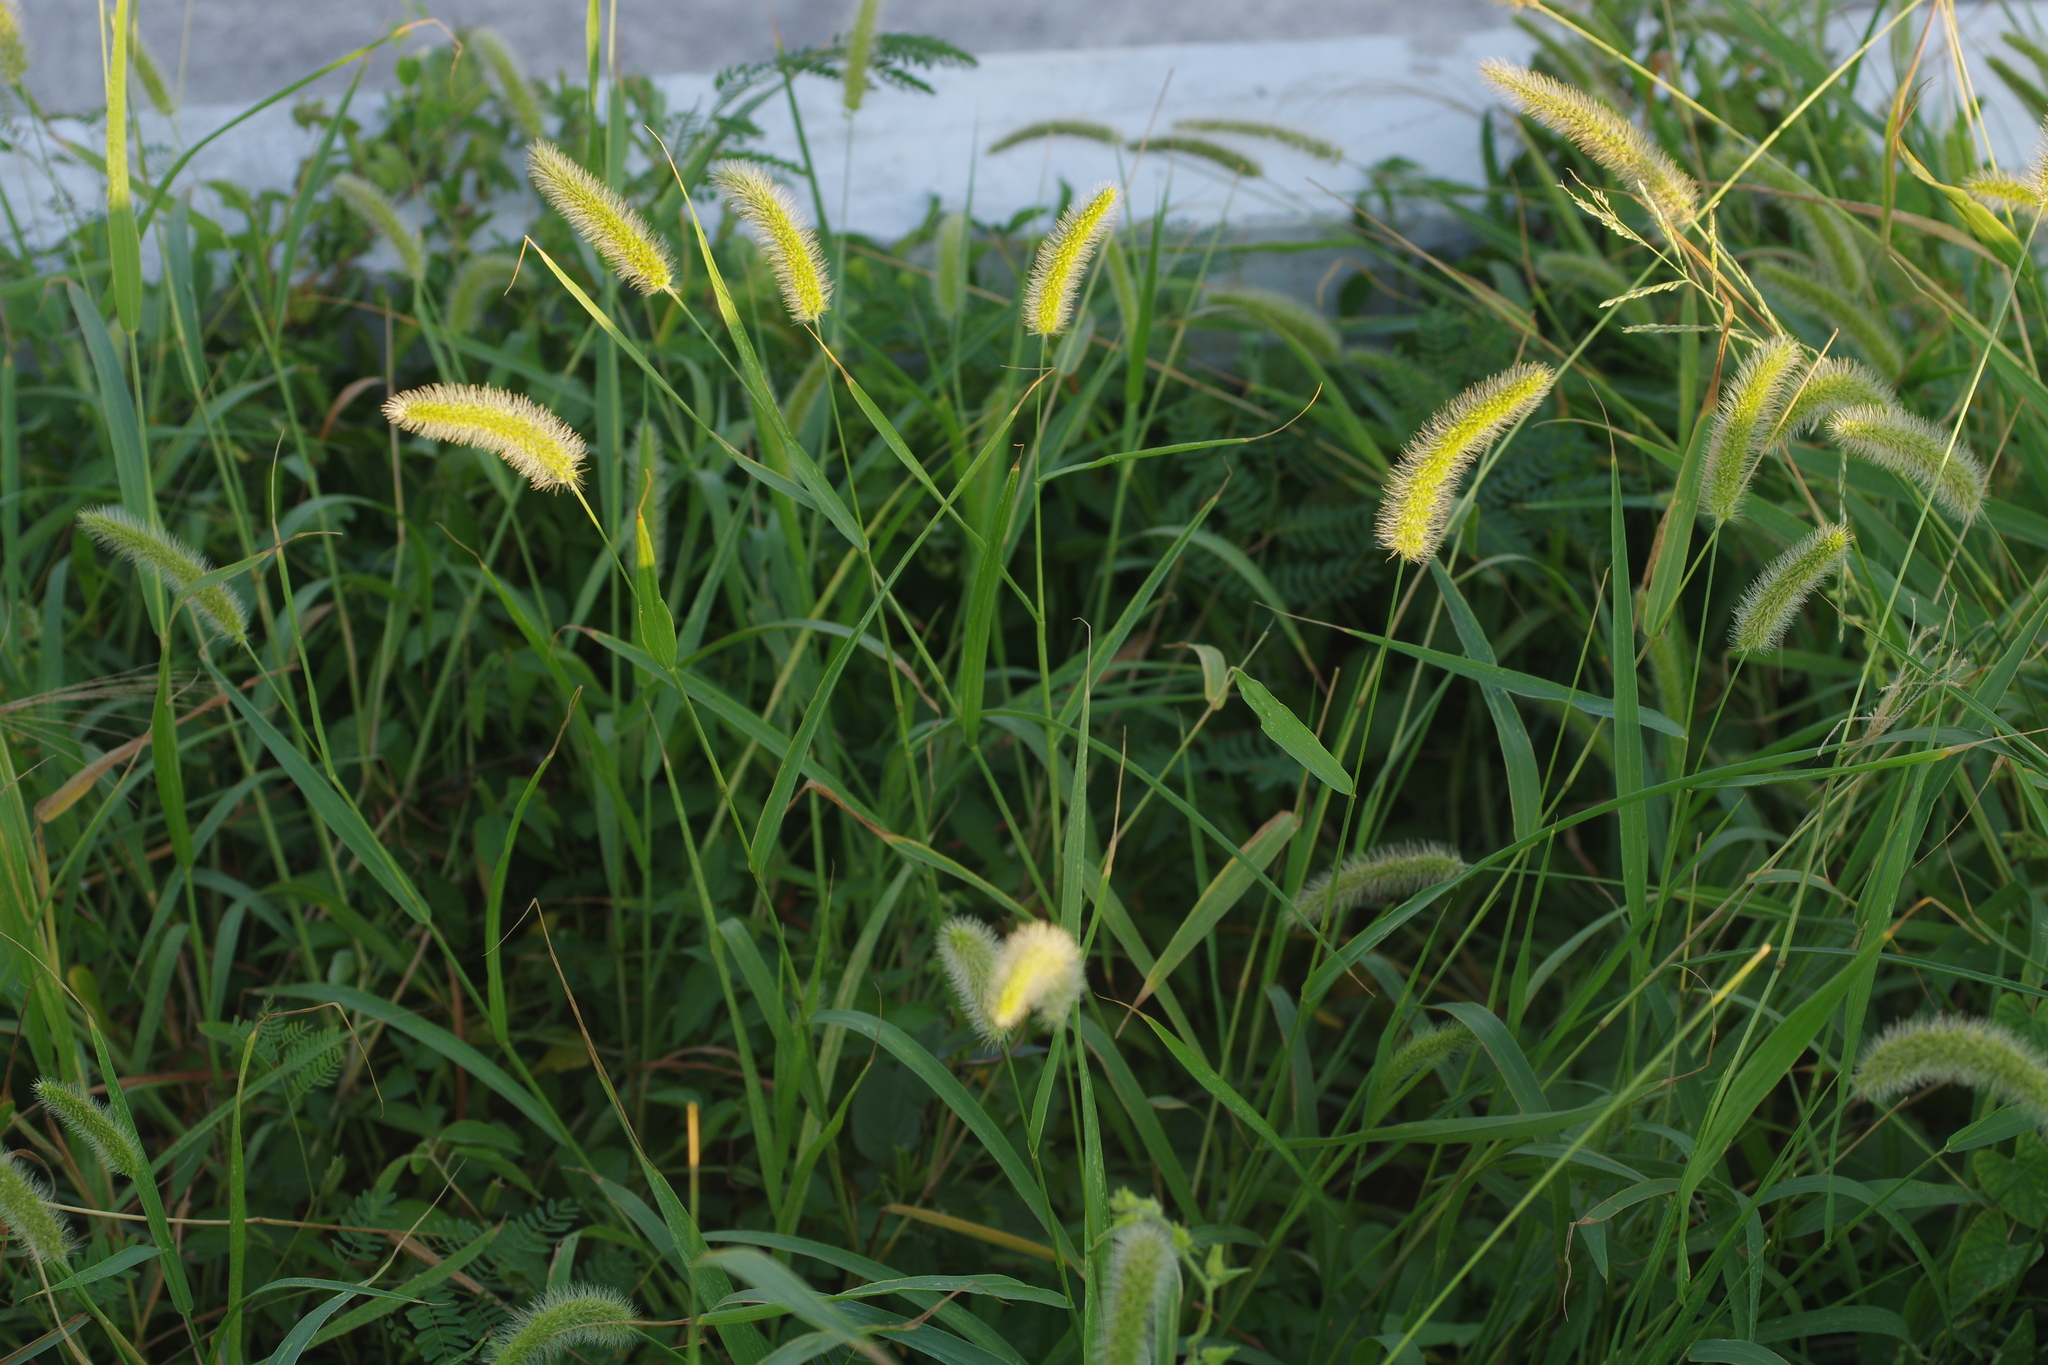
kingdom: Plantae
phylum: Tracheophyta
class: Liliopsida
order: Poales
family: Poaceae
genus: Setaria
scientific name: Setaria viridis
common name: Green bristlegrass
